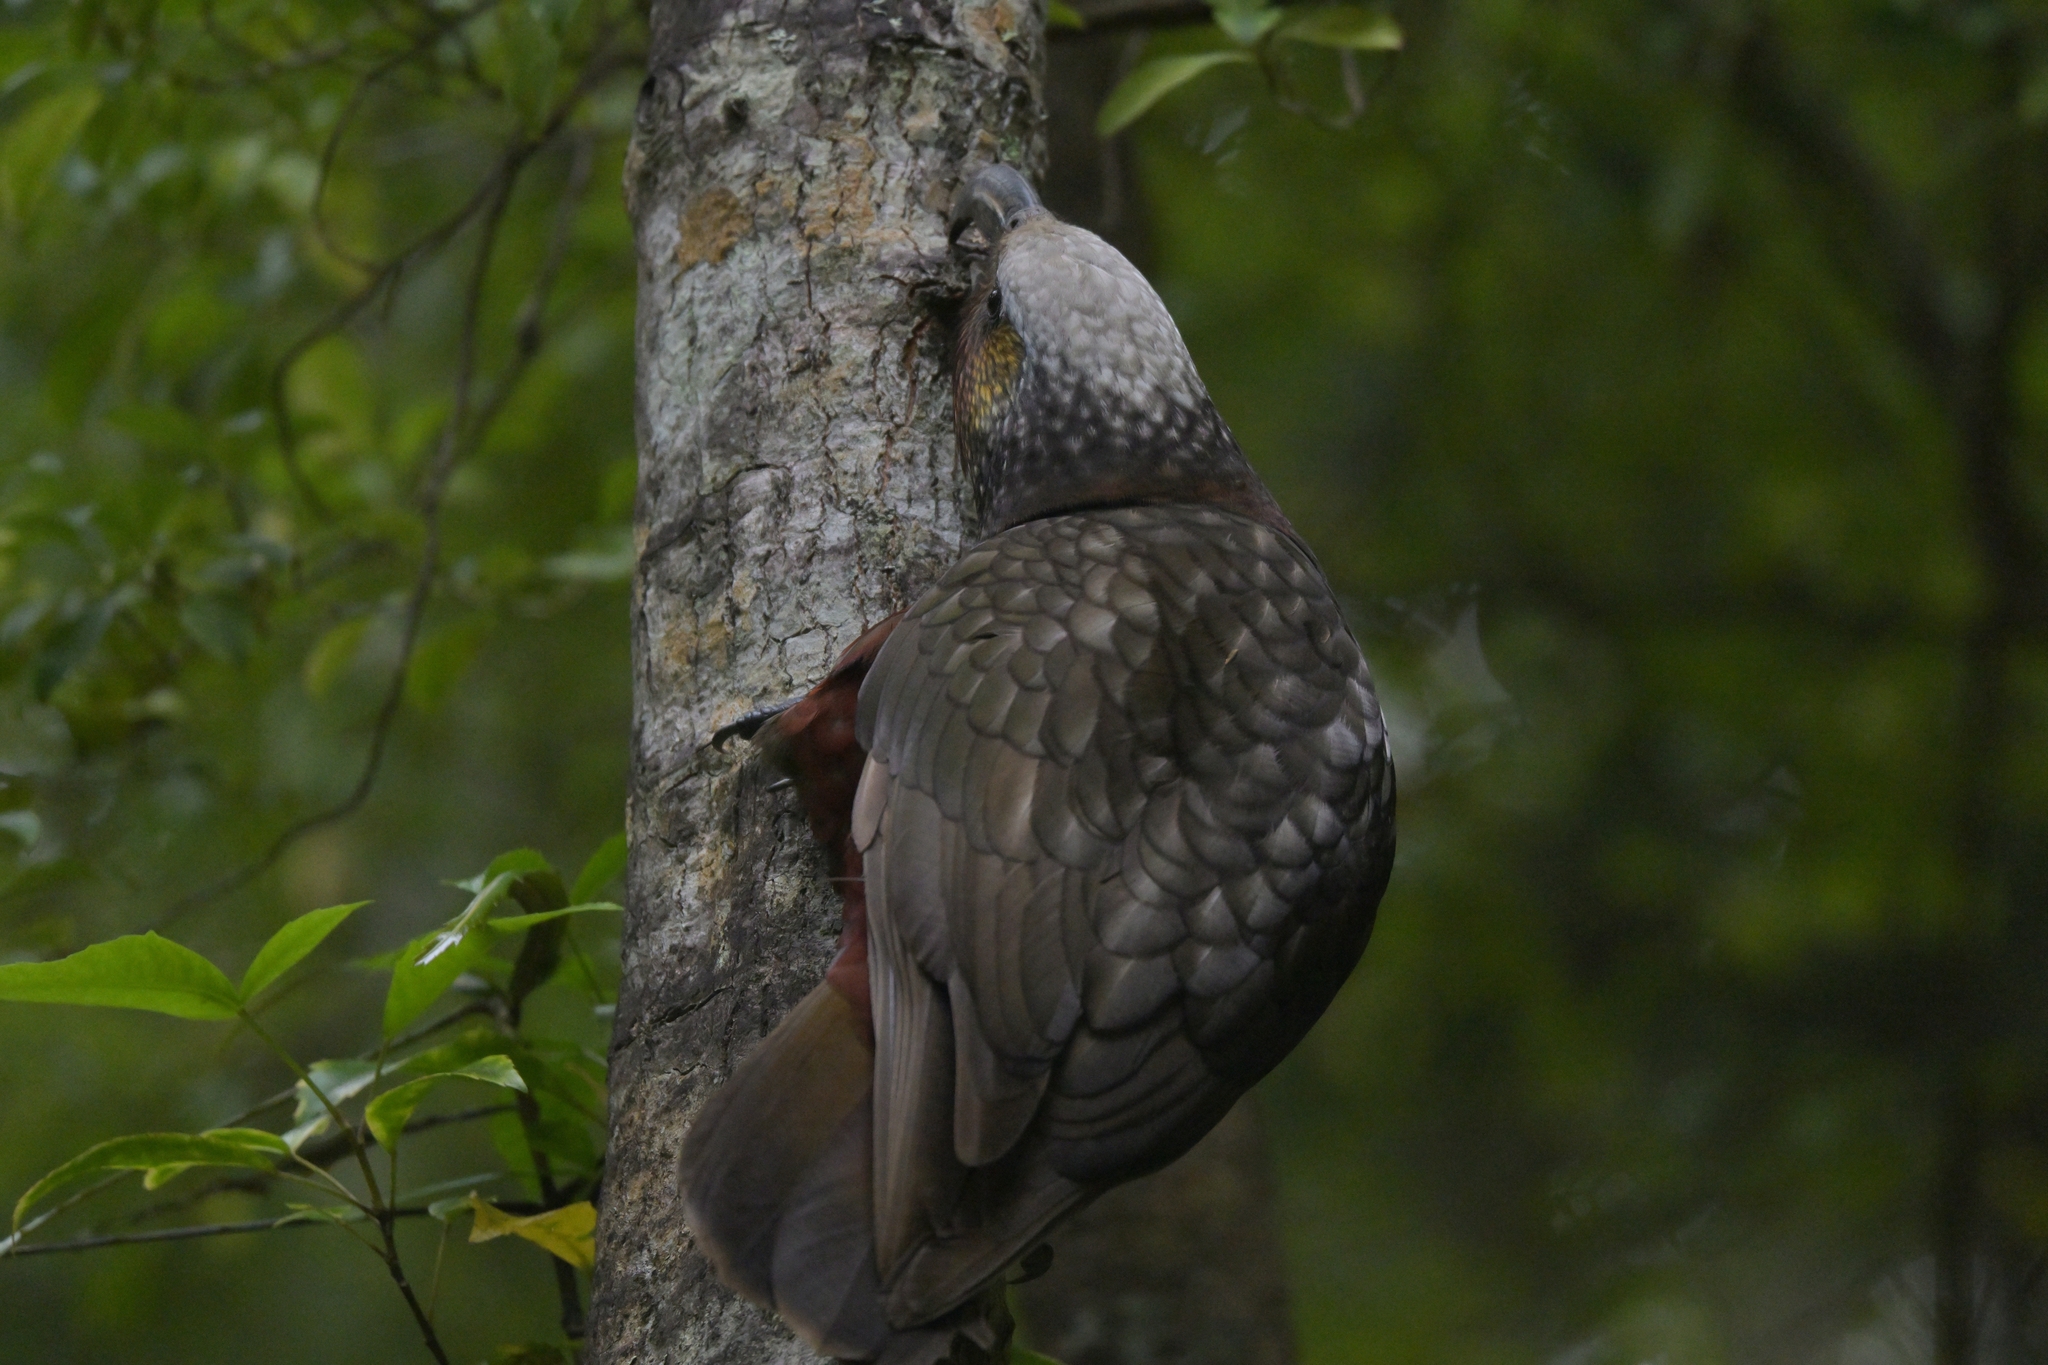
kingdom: Animalia
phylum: Chordata
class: Aves
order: Psittaciformes
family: Psittacidae
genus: Nestor
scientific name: Nestor meridionalis
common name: New zealand kaka
